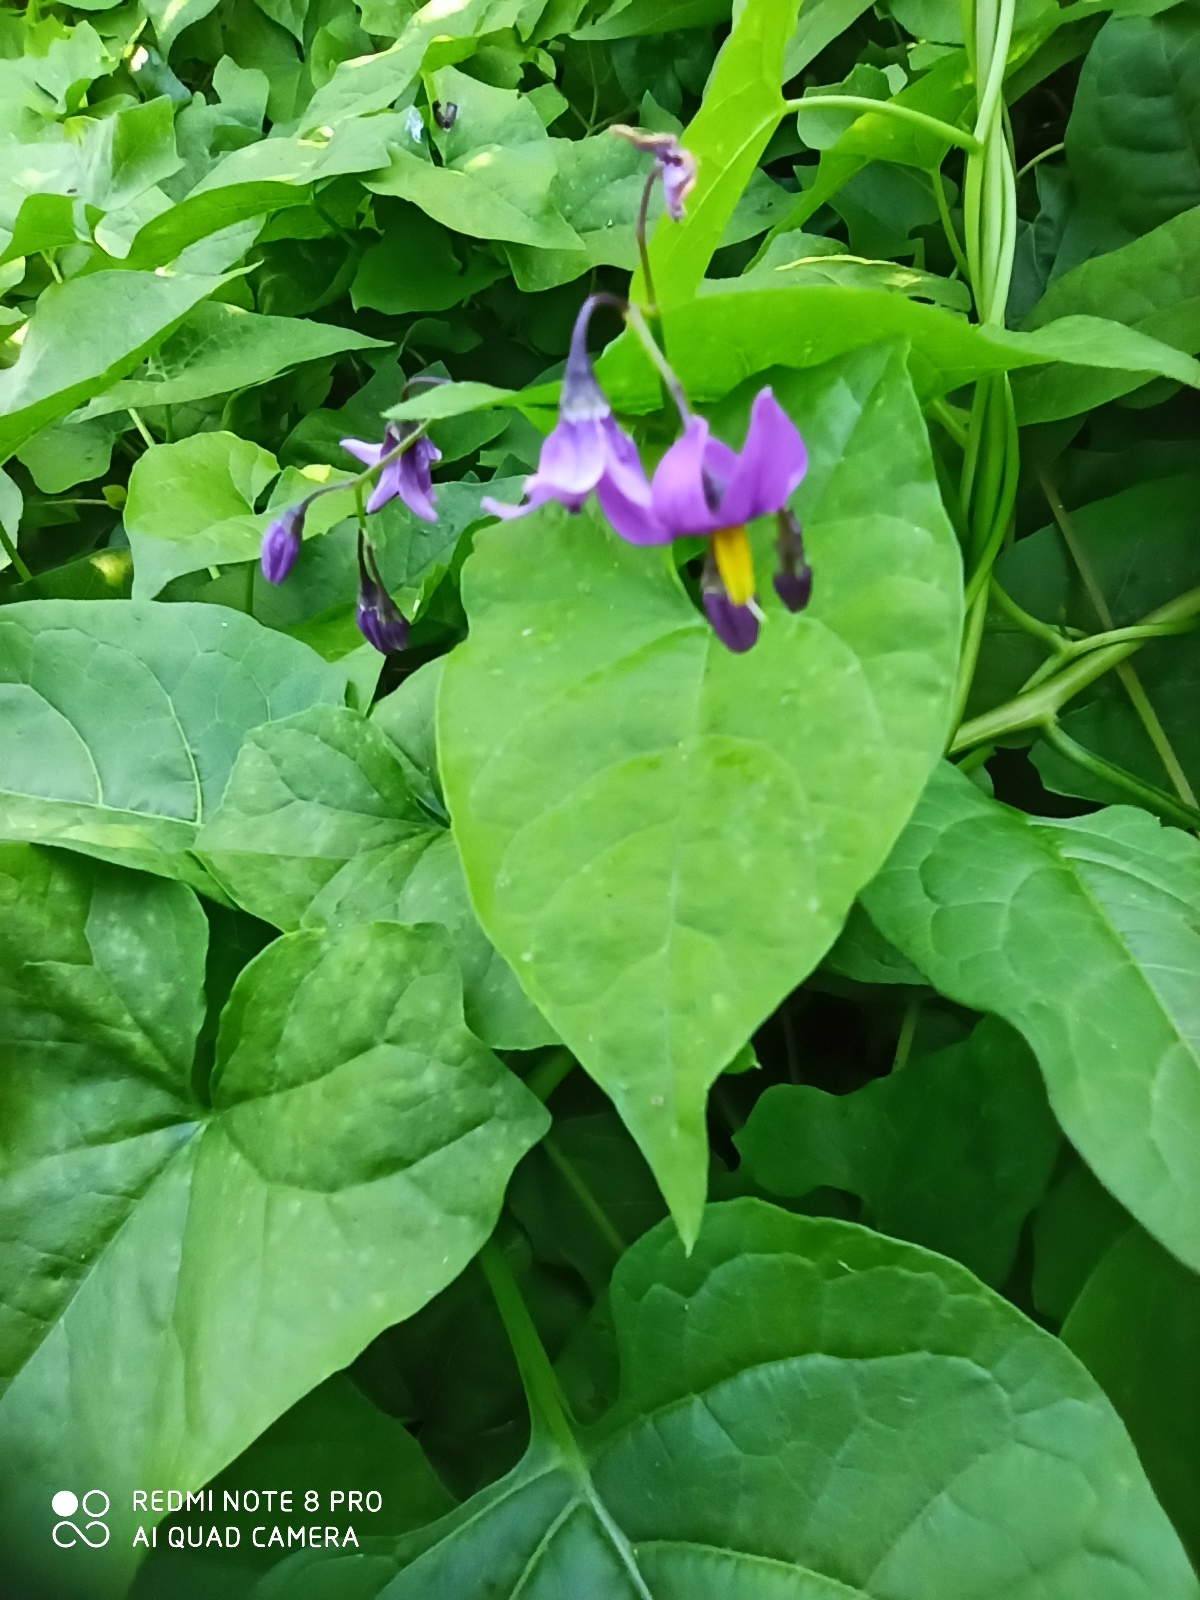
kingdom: Plantae
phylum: Tracheophyta
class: Magnoliopsida
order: Solanales
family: Solanaceae
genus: Solanum
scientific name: Solanum dulcamara
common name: Climbing nightshade
